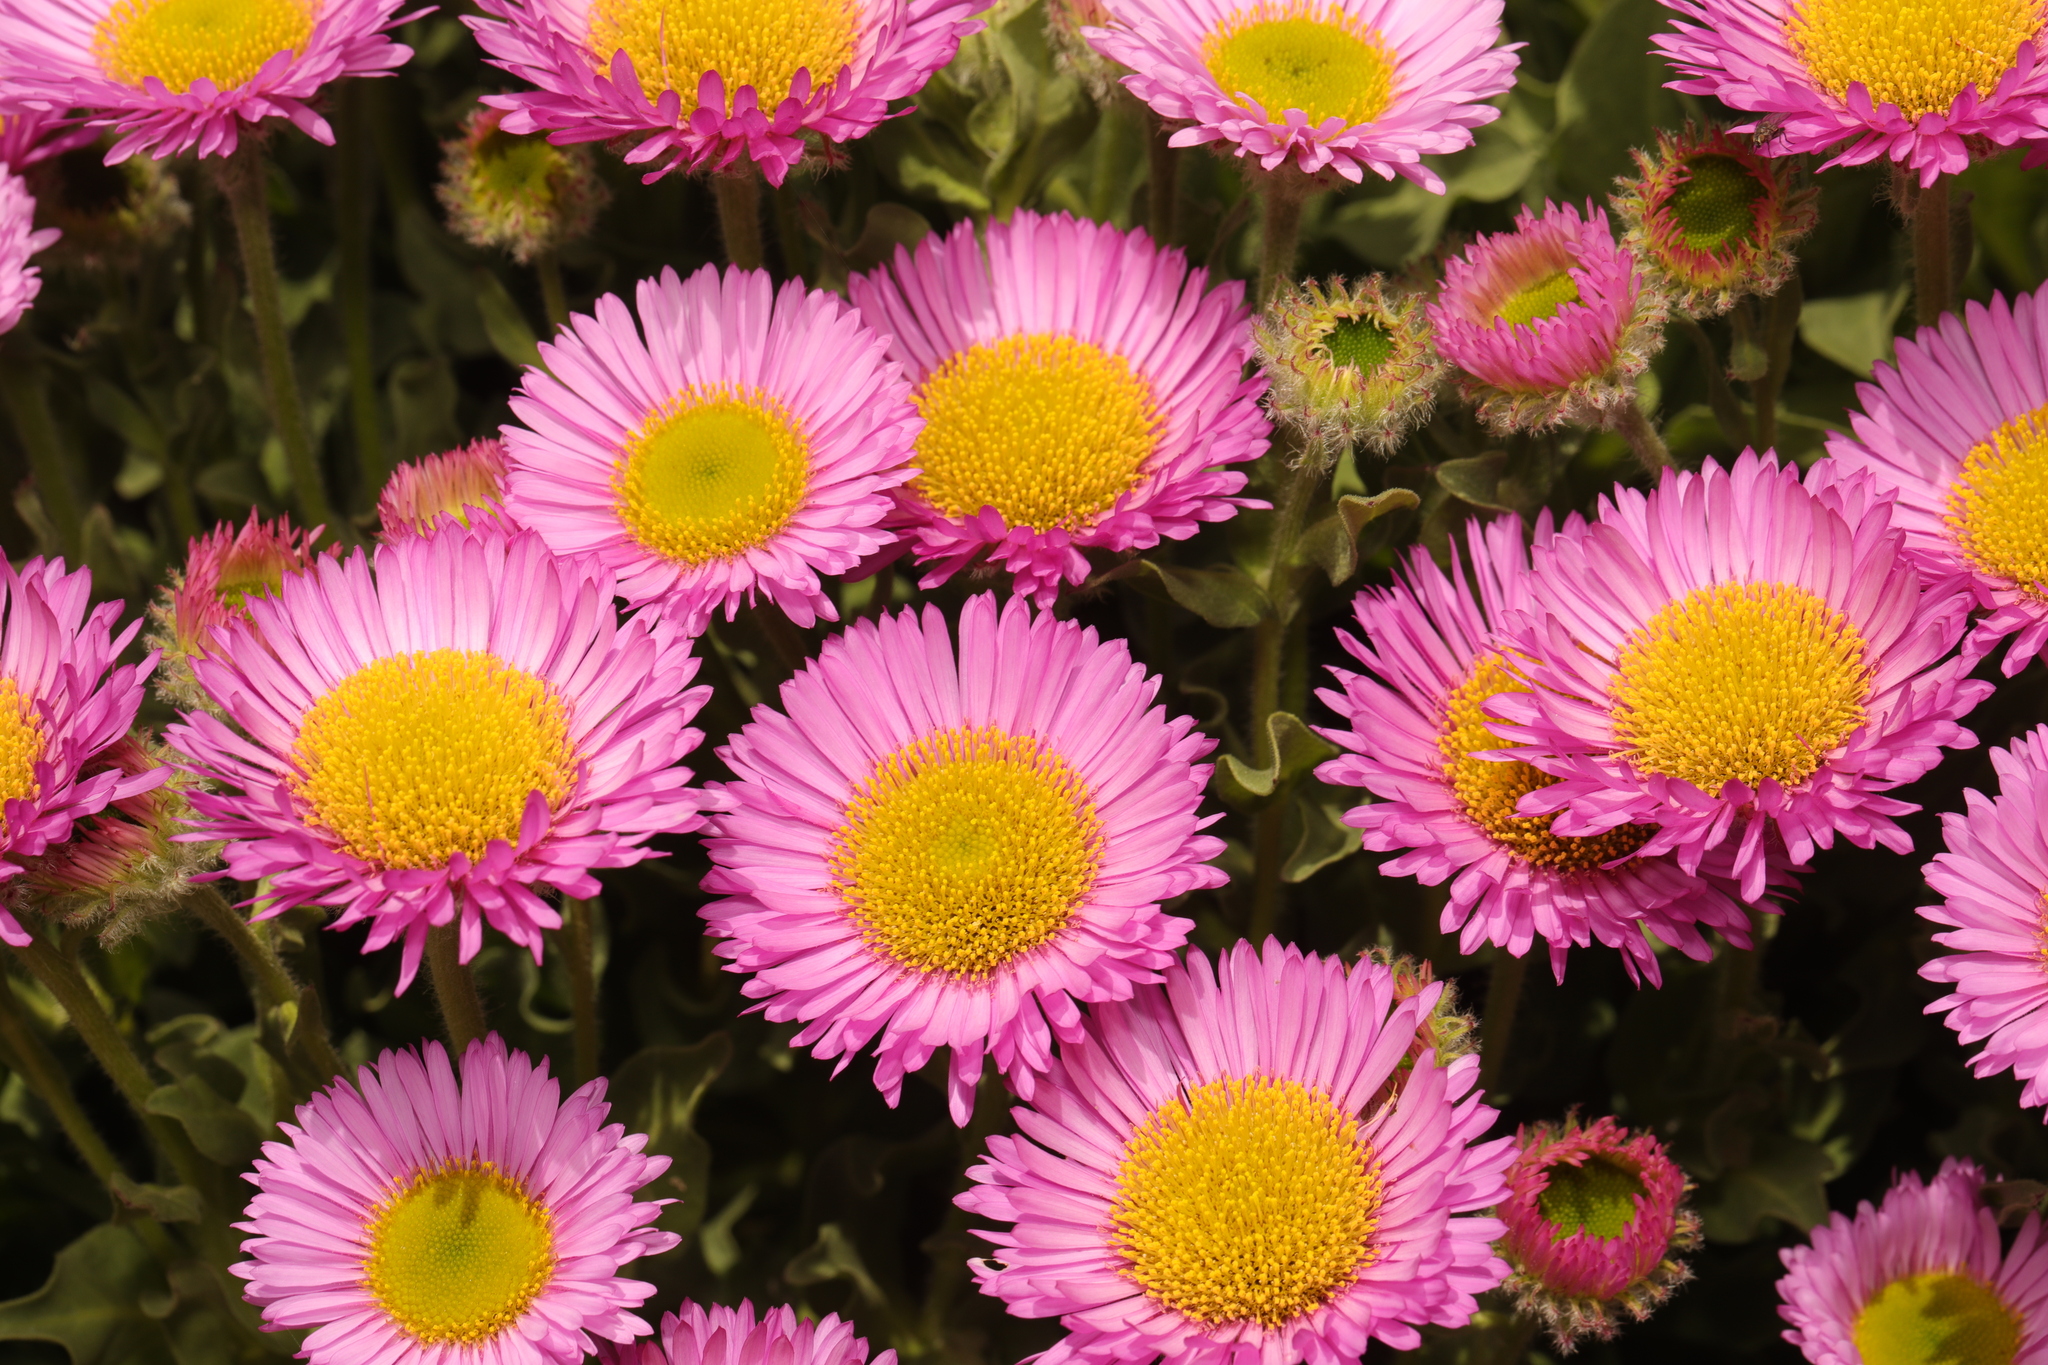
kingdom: Plantae
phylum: Tracheophyta
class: Magnoliopsida
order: Asterales
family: Asteraceae
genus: Erigeron
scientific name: Erigeron glaucus
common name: Seaside daisy
